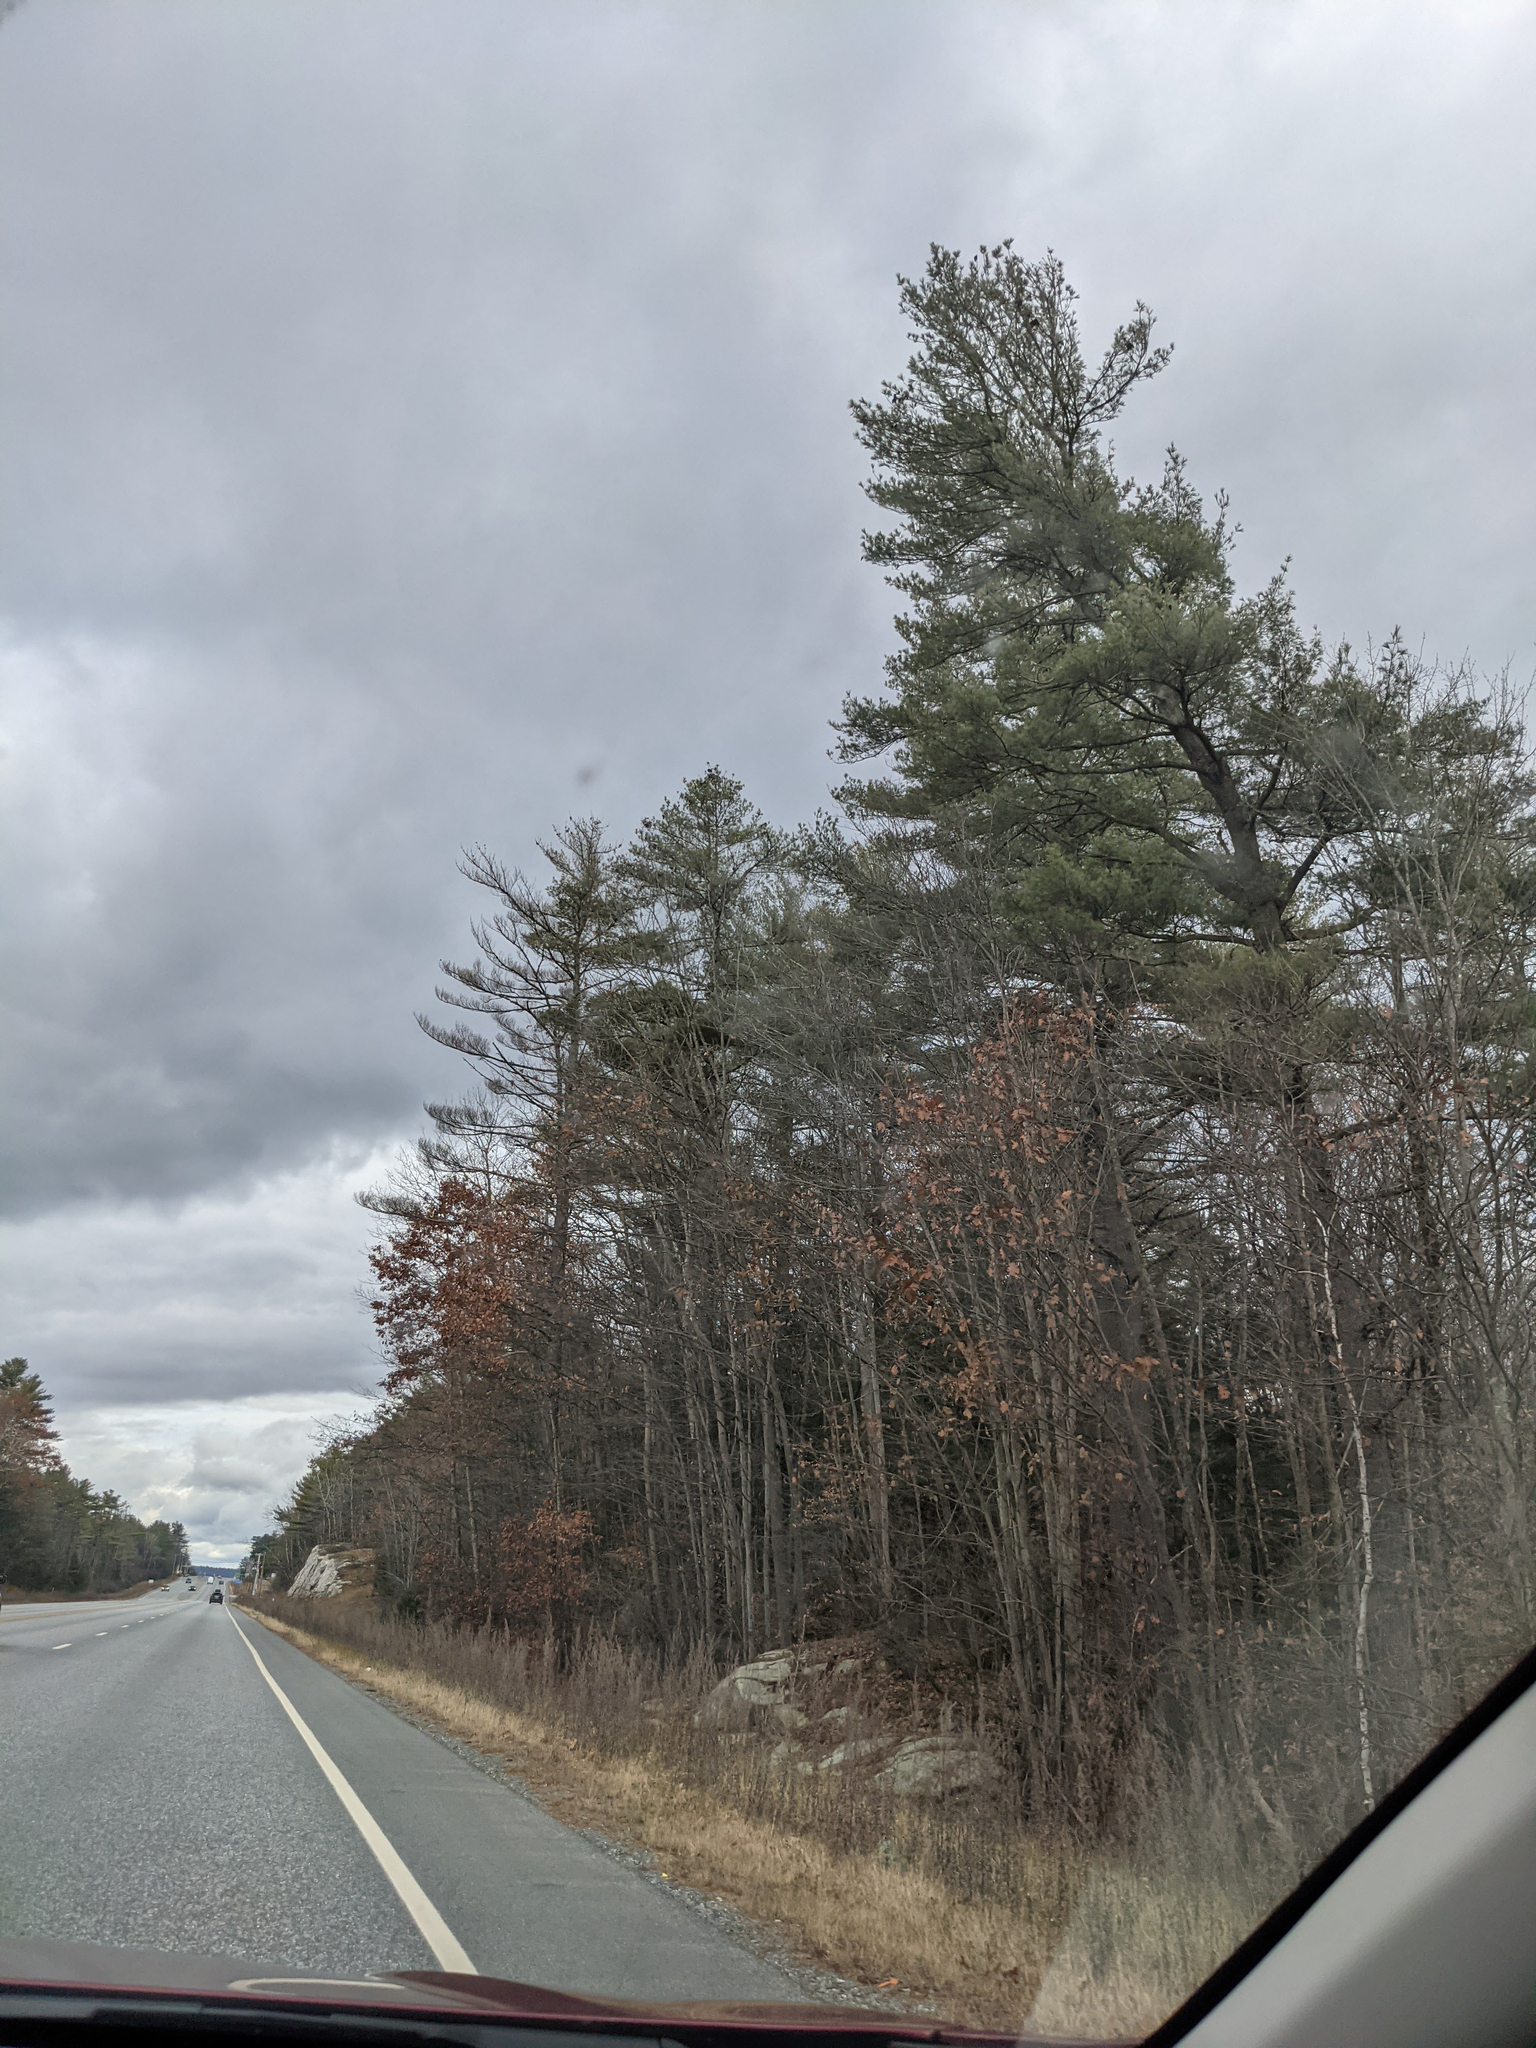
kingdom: Plantae
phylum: Tracheophyta
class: Pinopsida
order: Pinales
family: Pinaceae
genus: Pinus
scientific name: Pinus strobus
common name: Weymouth pine
